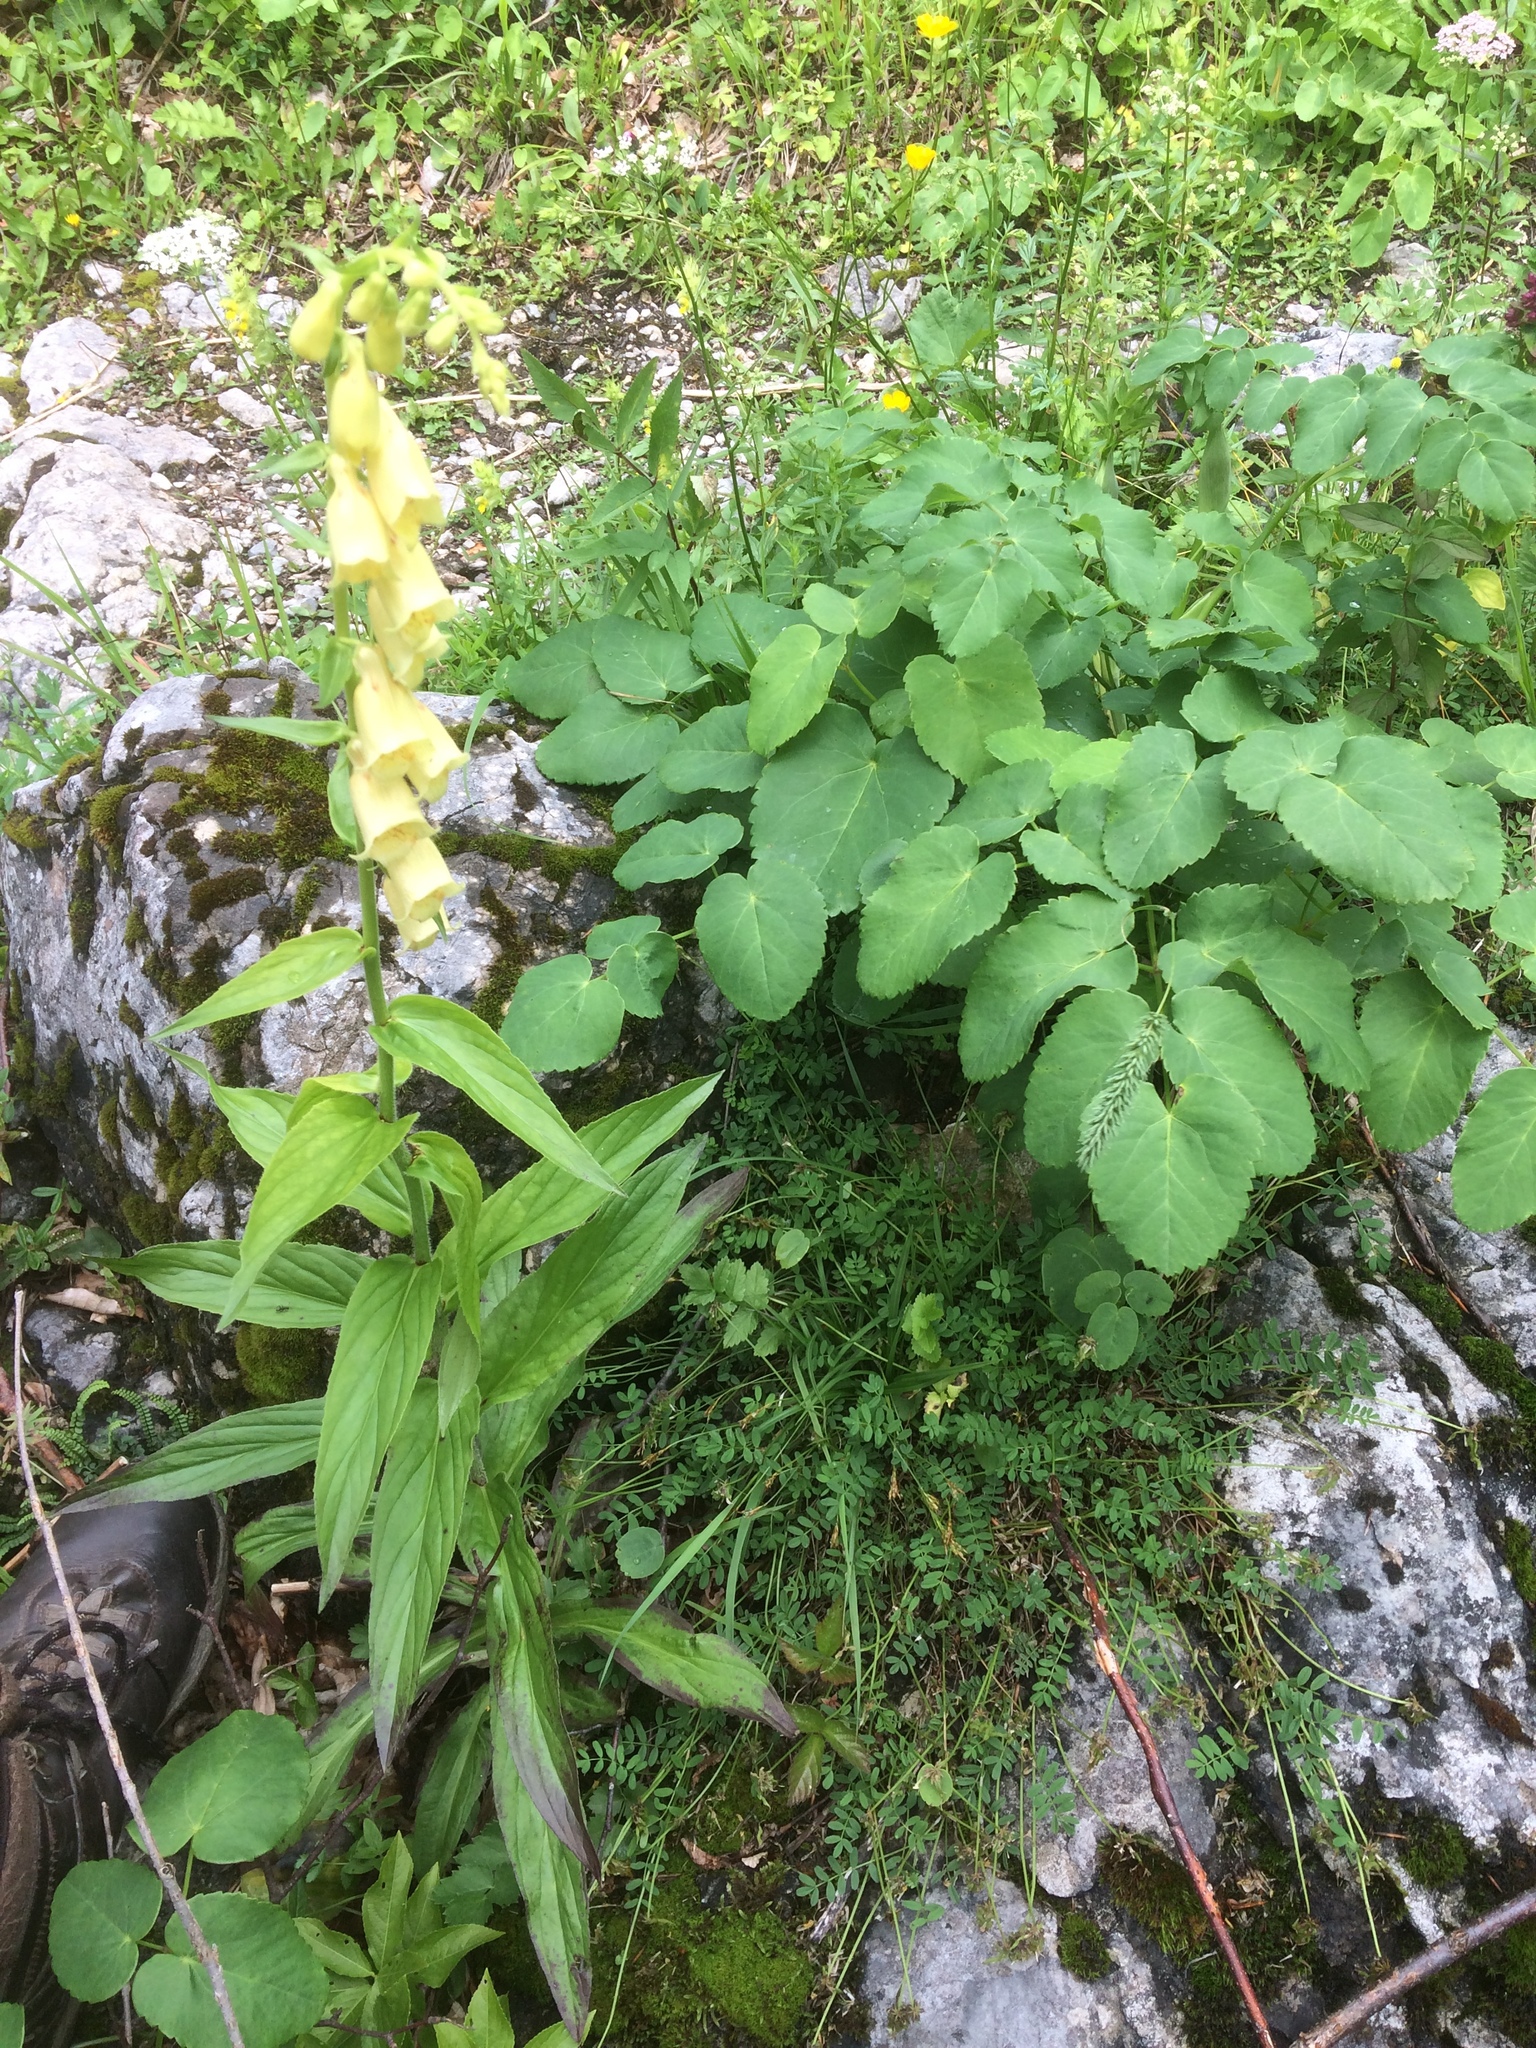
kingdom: Plantae
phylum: Tracheophyta
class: Magnoliopsida
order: Lamiales
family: Plantaginaceae
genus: Digitalis
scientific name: Digitalis grandiflora
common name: Yellow foxglove
